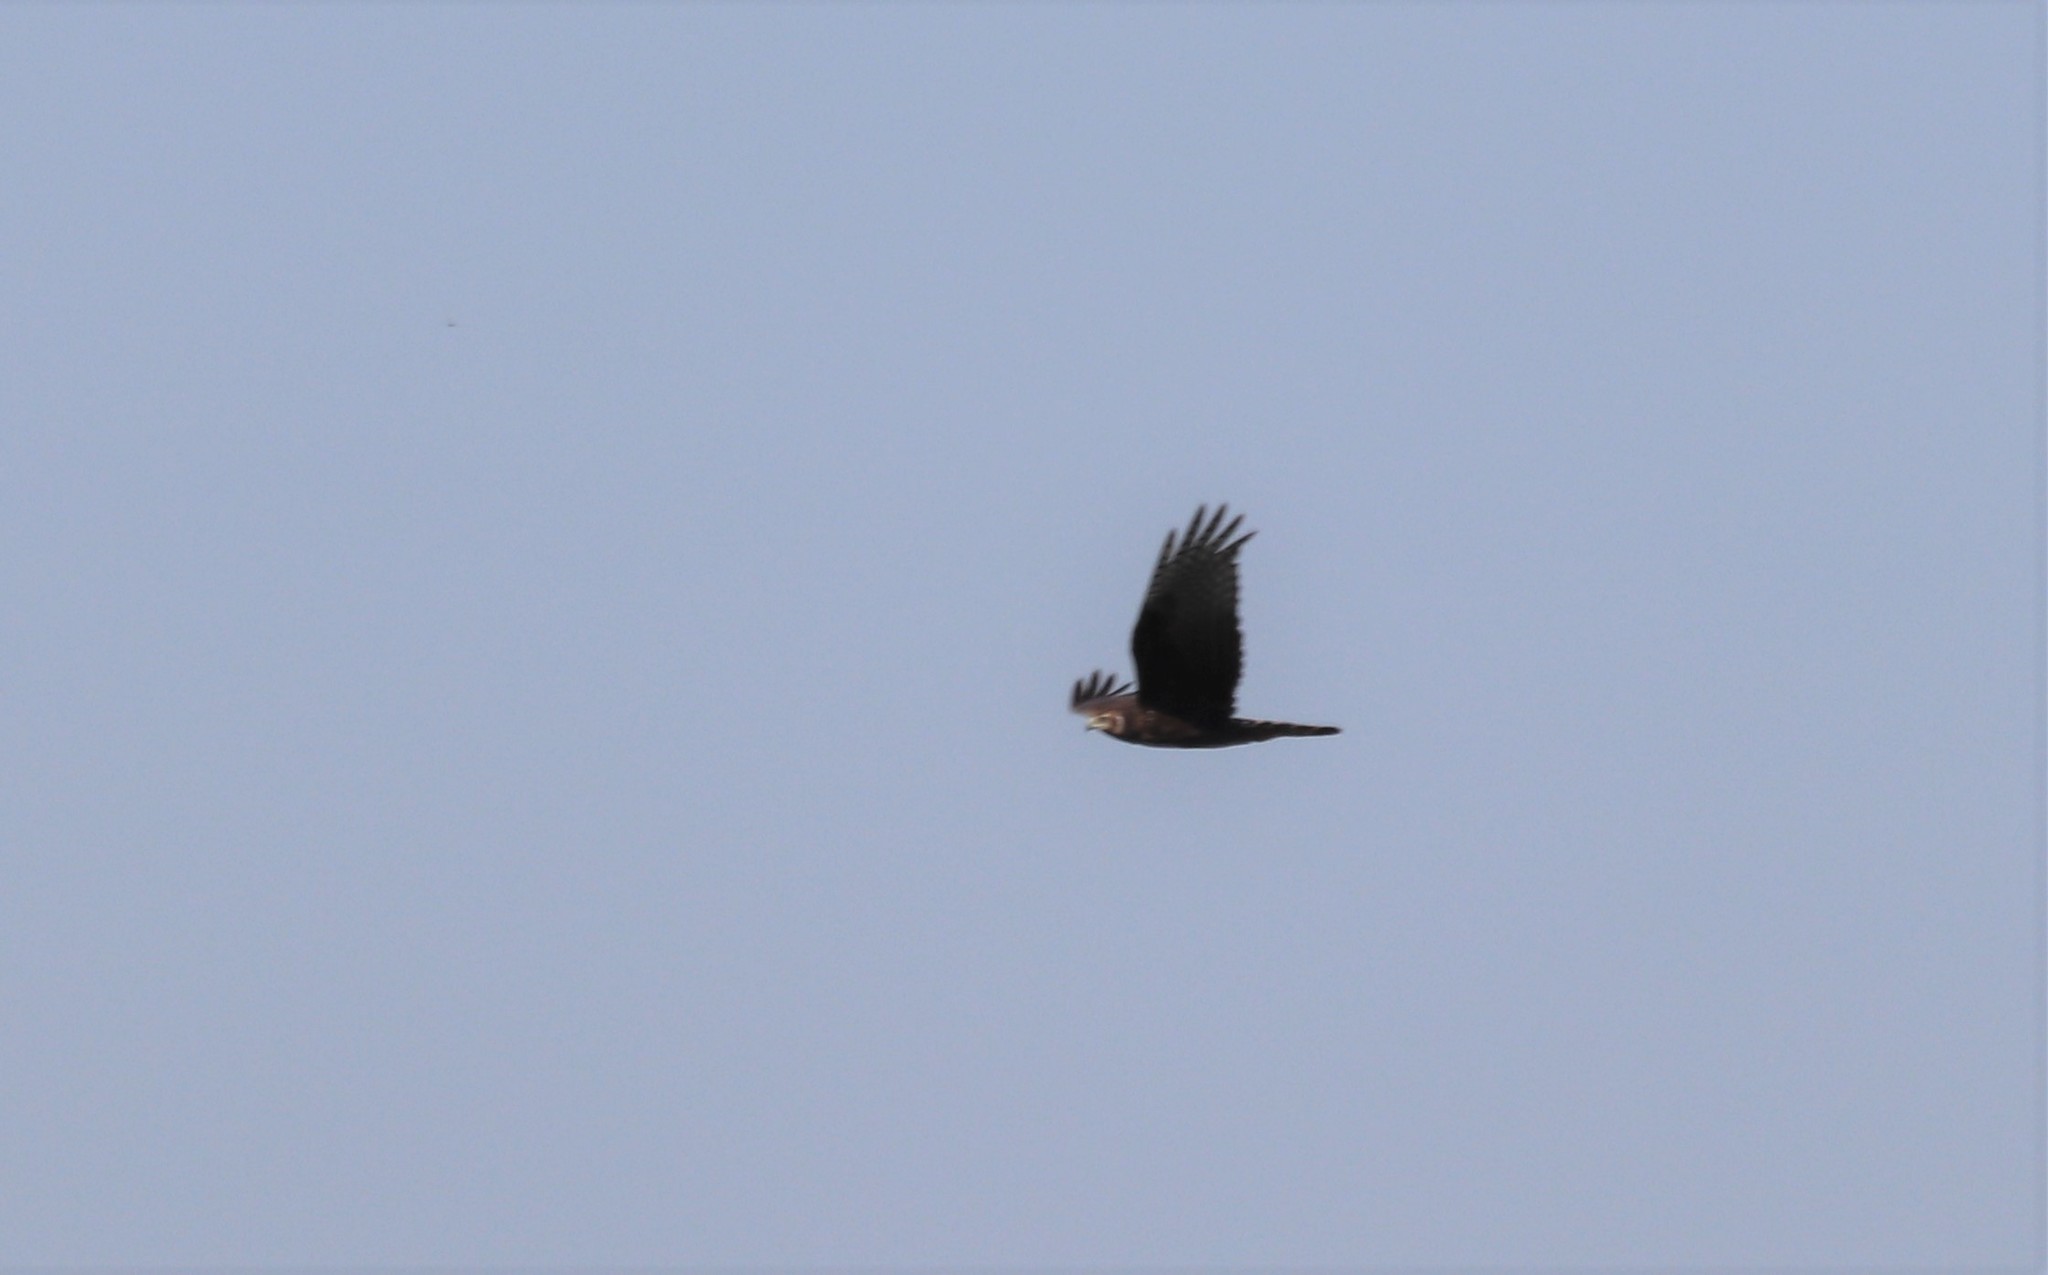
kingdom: Animalia
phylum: Chordata
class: Aves
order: Accipitriformes
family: Accipitridae
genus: Circus
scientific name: Circus buffoni
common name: Long-winged harrier
